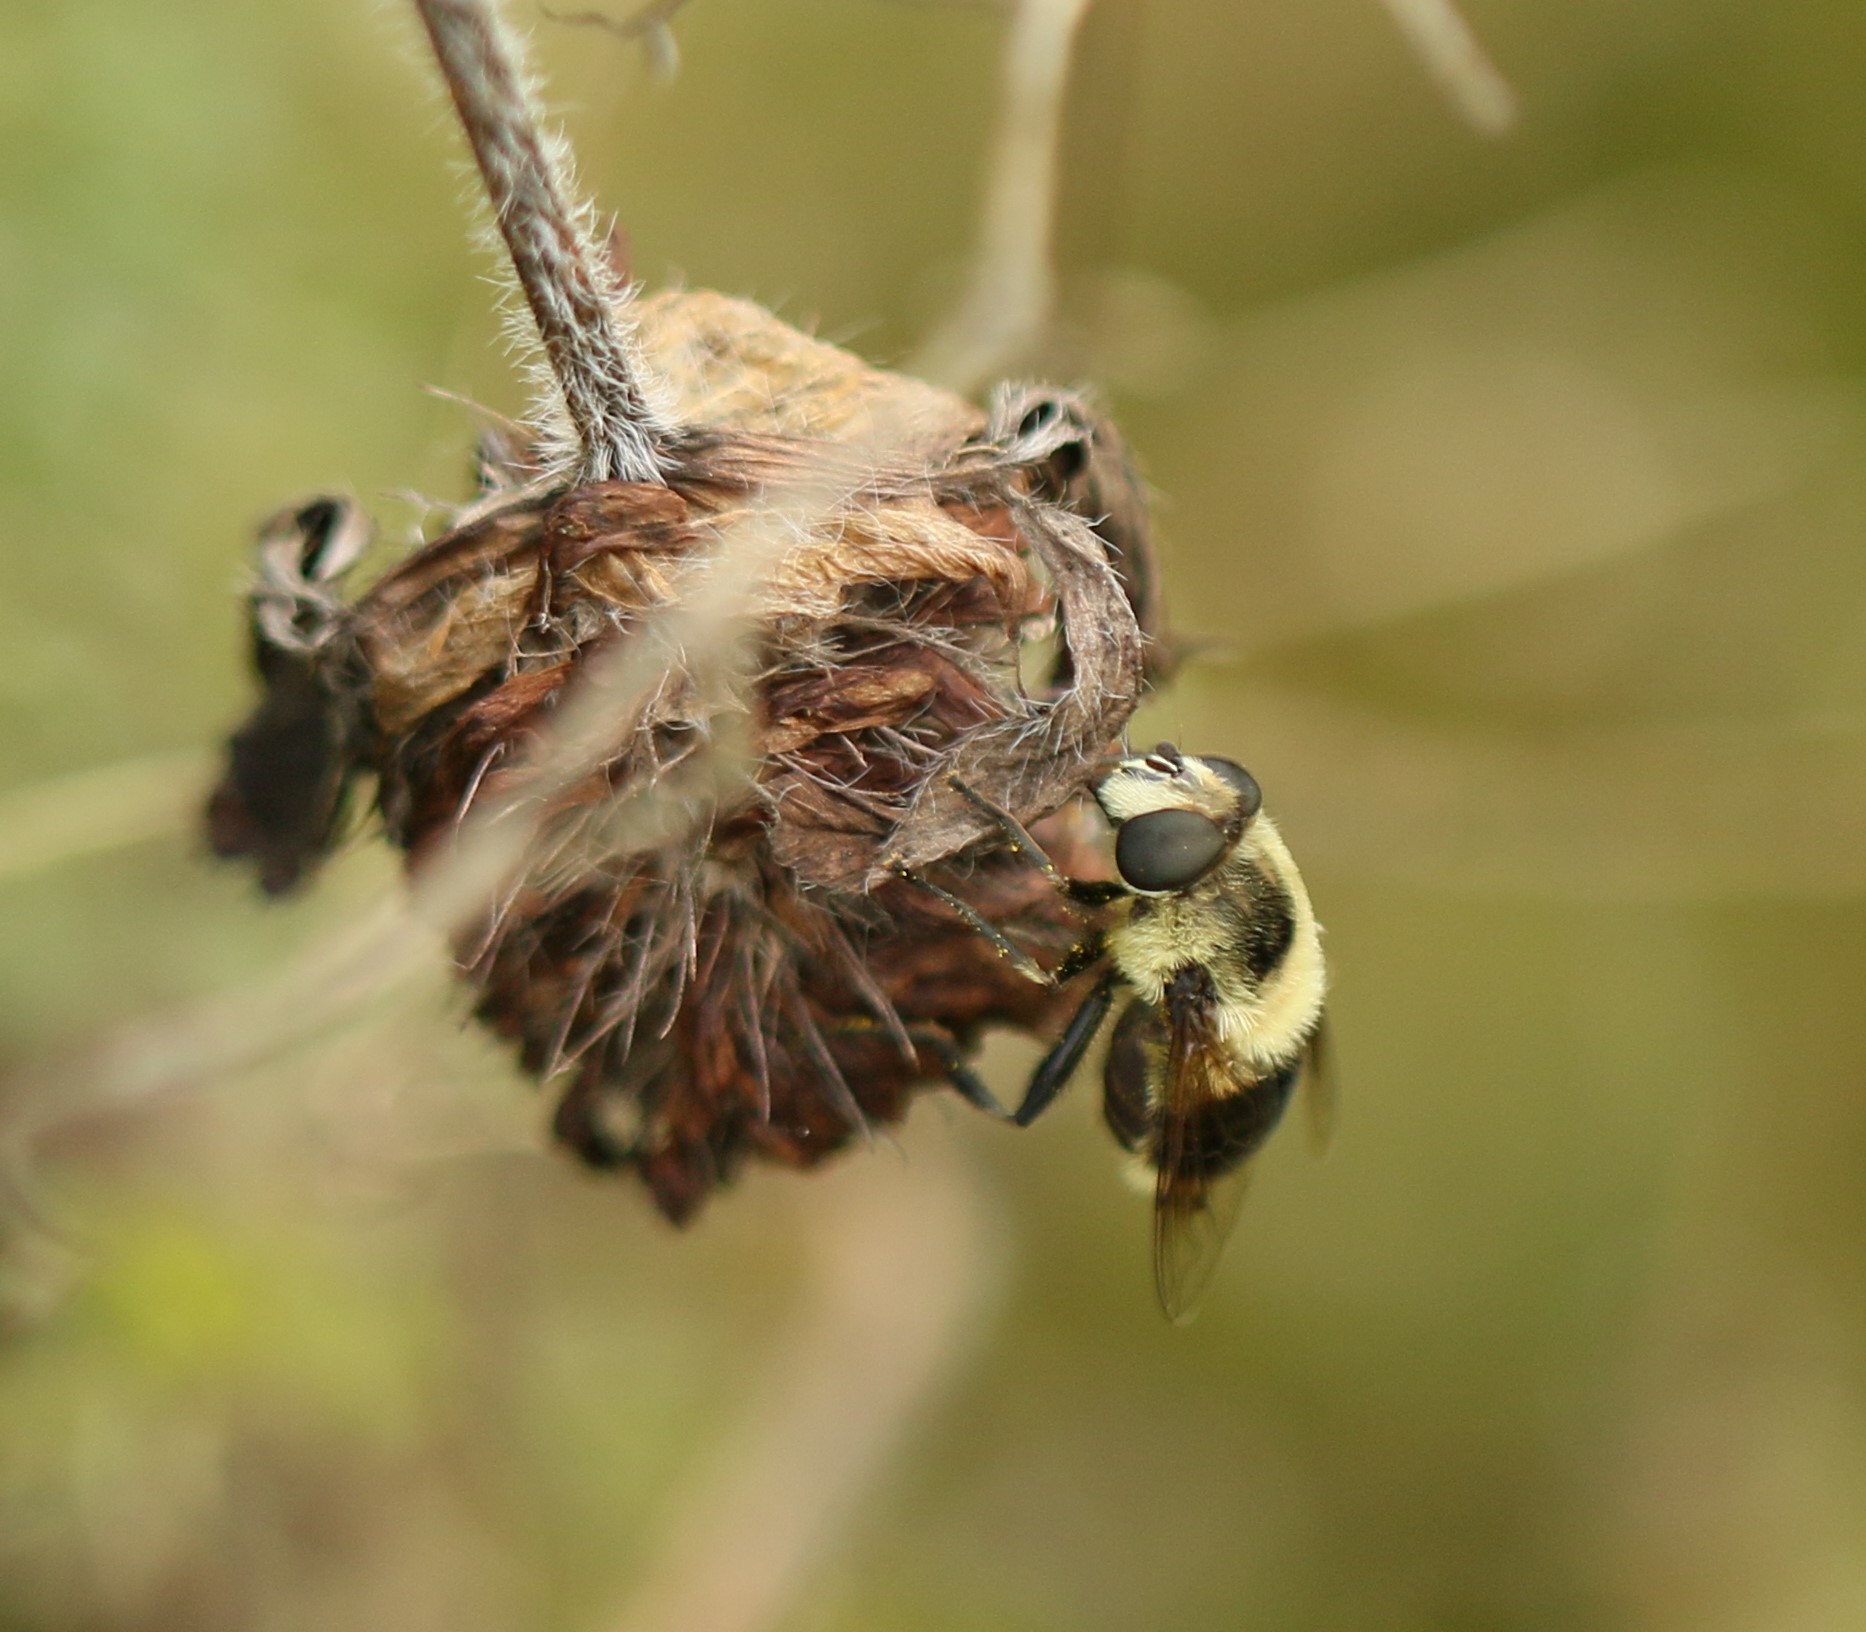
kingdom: Animalia
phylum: Arthropoda
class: Insecta
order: Diptera
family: Syrphidae
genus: Eristalis
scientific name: Eristalis anthophorina
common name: Orange-spotted drone fly
